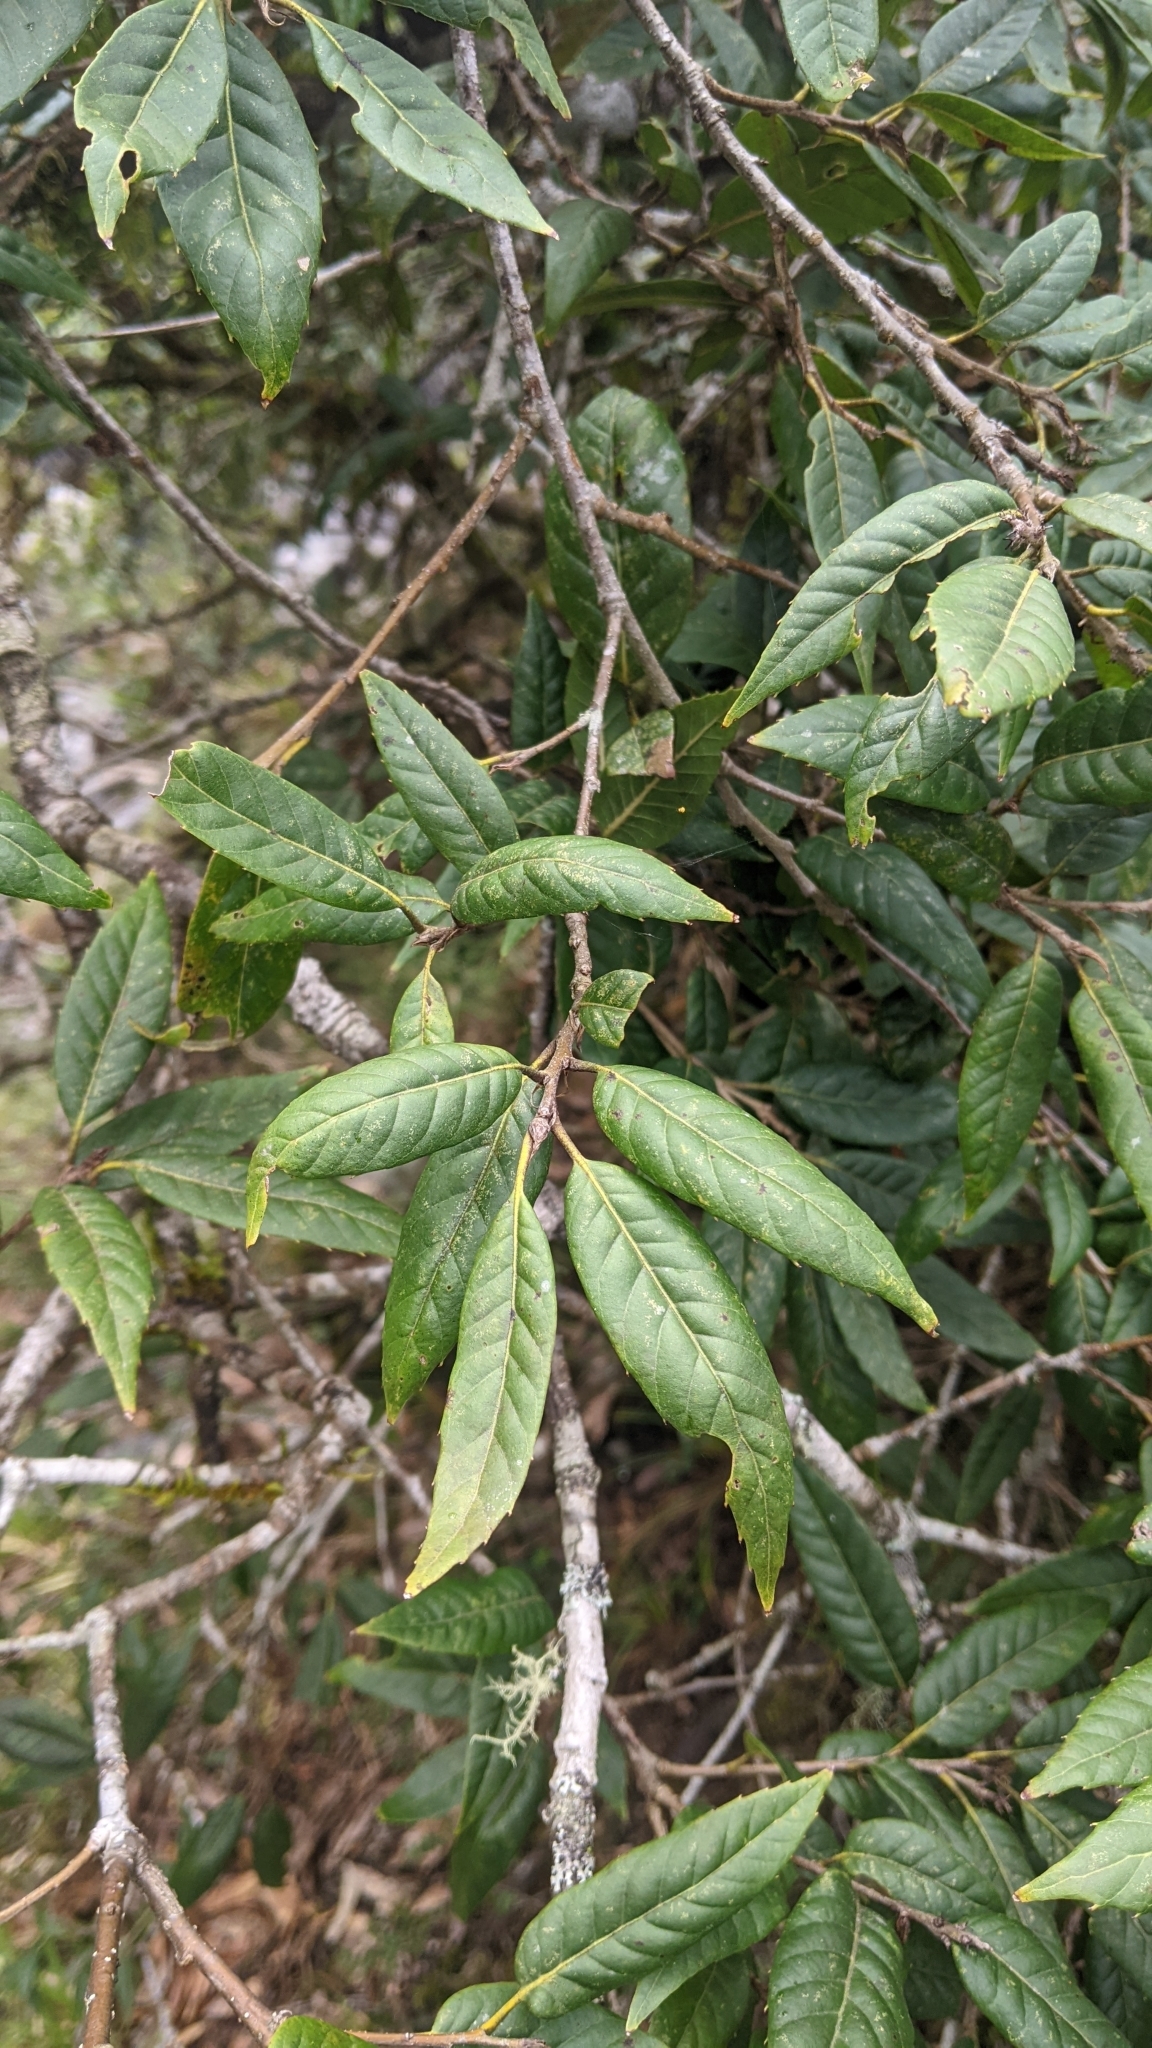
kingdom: Plantae
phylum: Tracheophyta
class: Magnoliopsida
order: Fagales
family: Fagaceae
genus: Quercus
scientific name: Quercus tatakaensis
